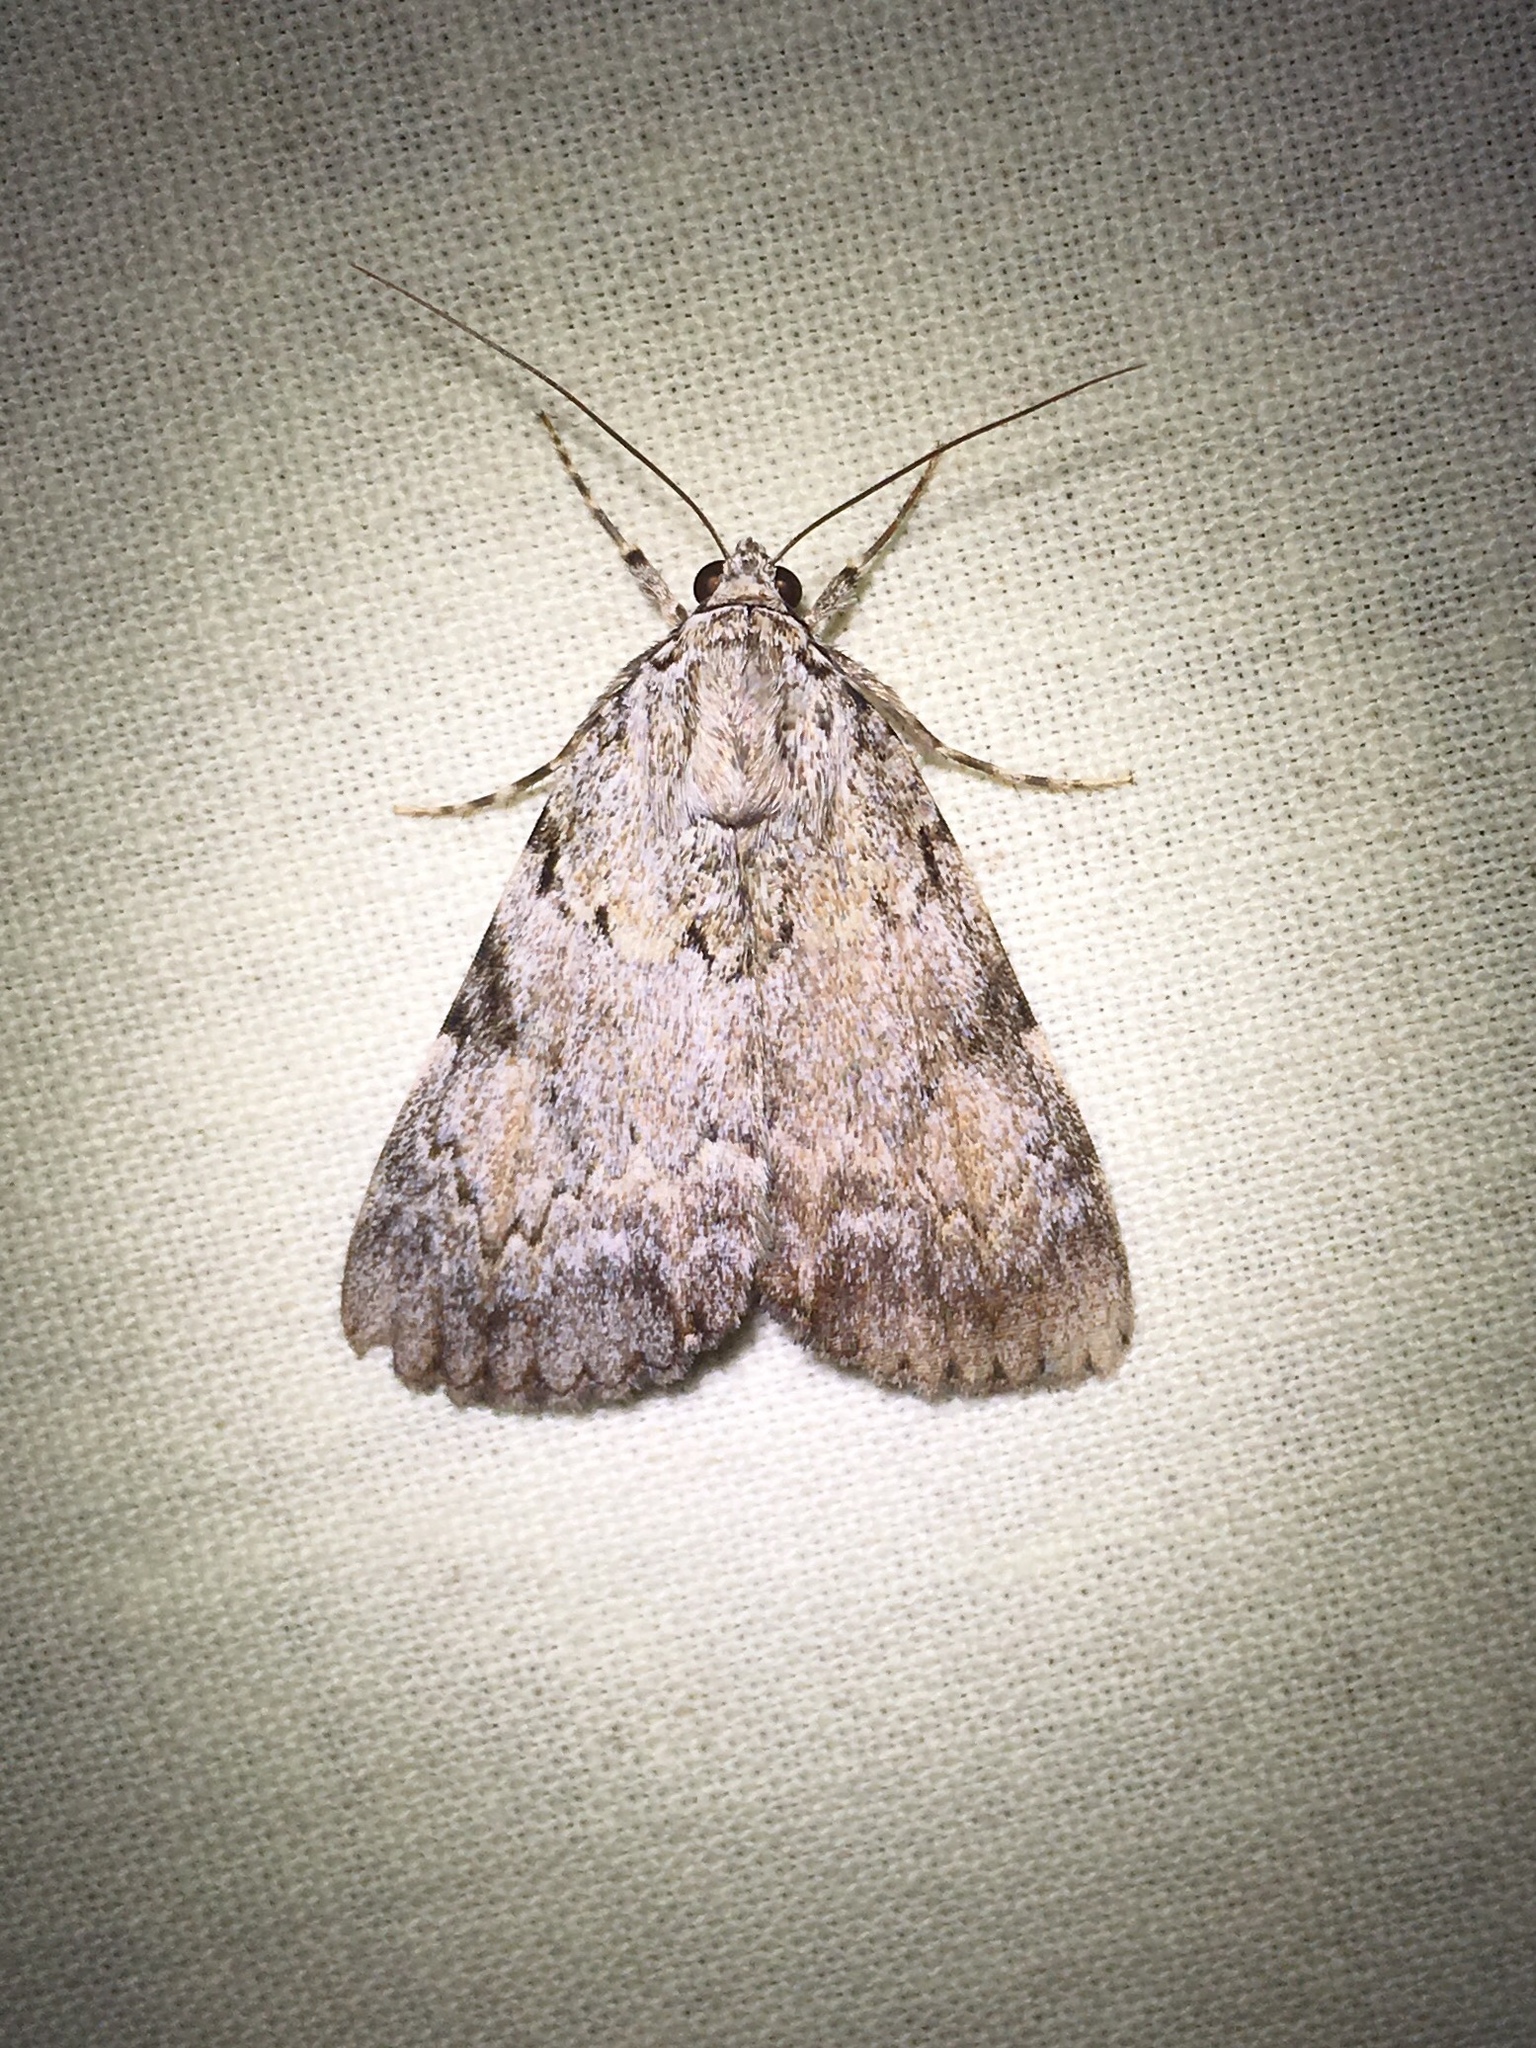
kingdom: Animalia
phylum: Arthropoda
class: Insecta
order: Lepidoptera
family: Erebidae
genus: Catocala
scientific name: Catocala amica
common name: Girlfriend underwing
